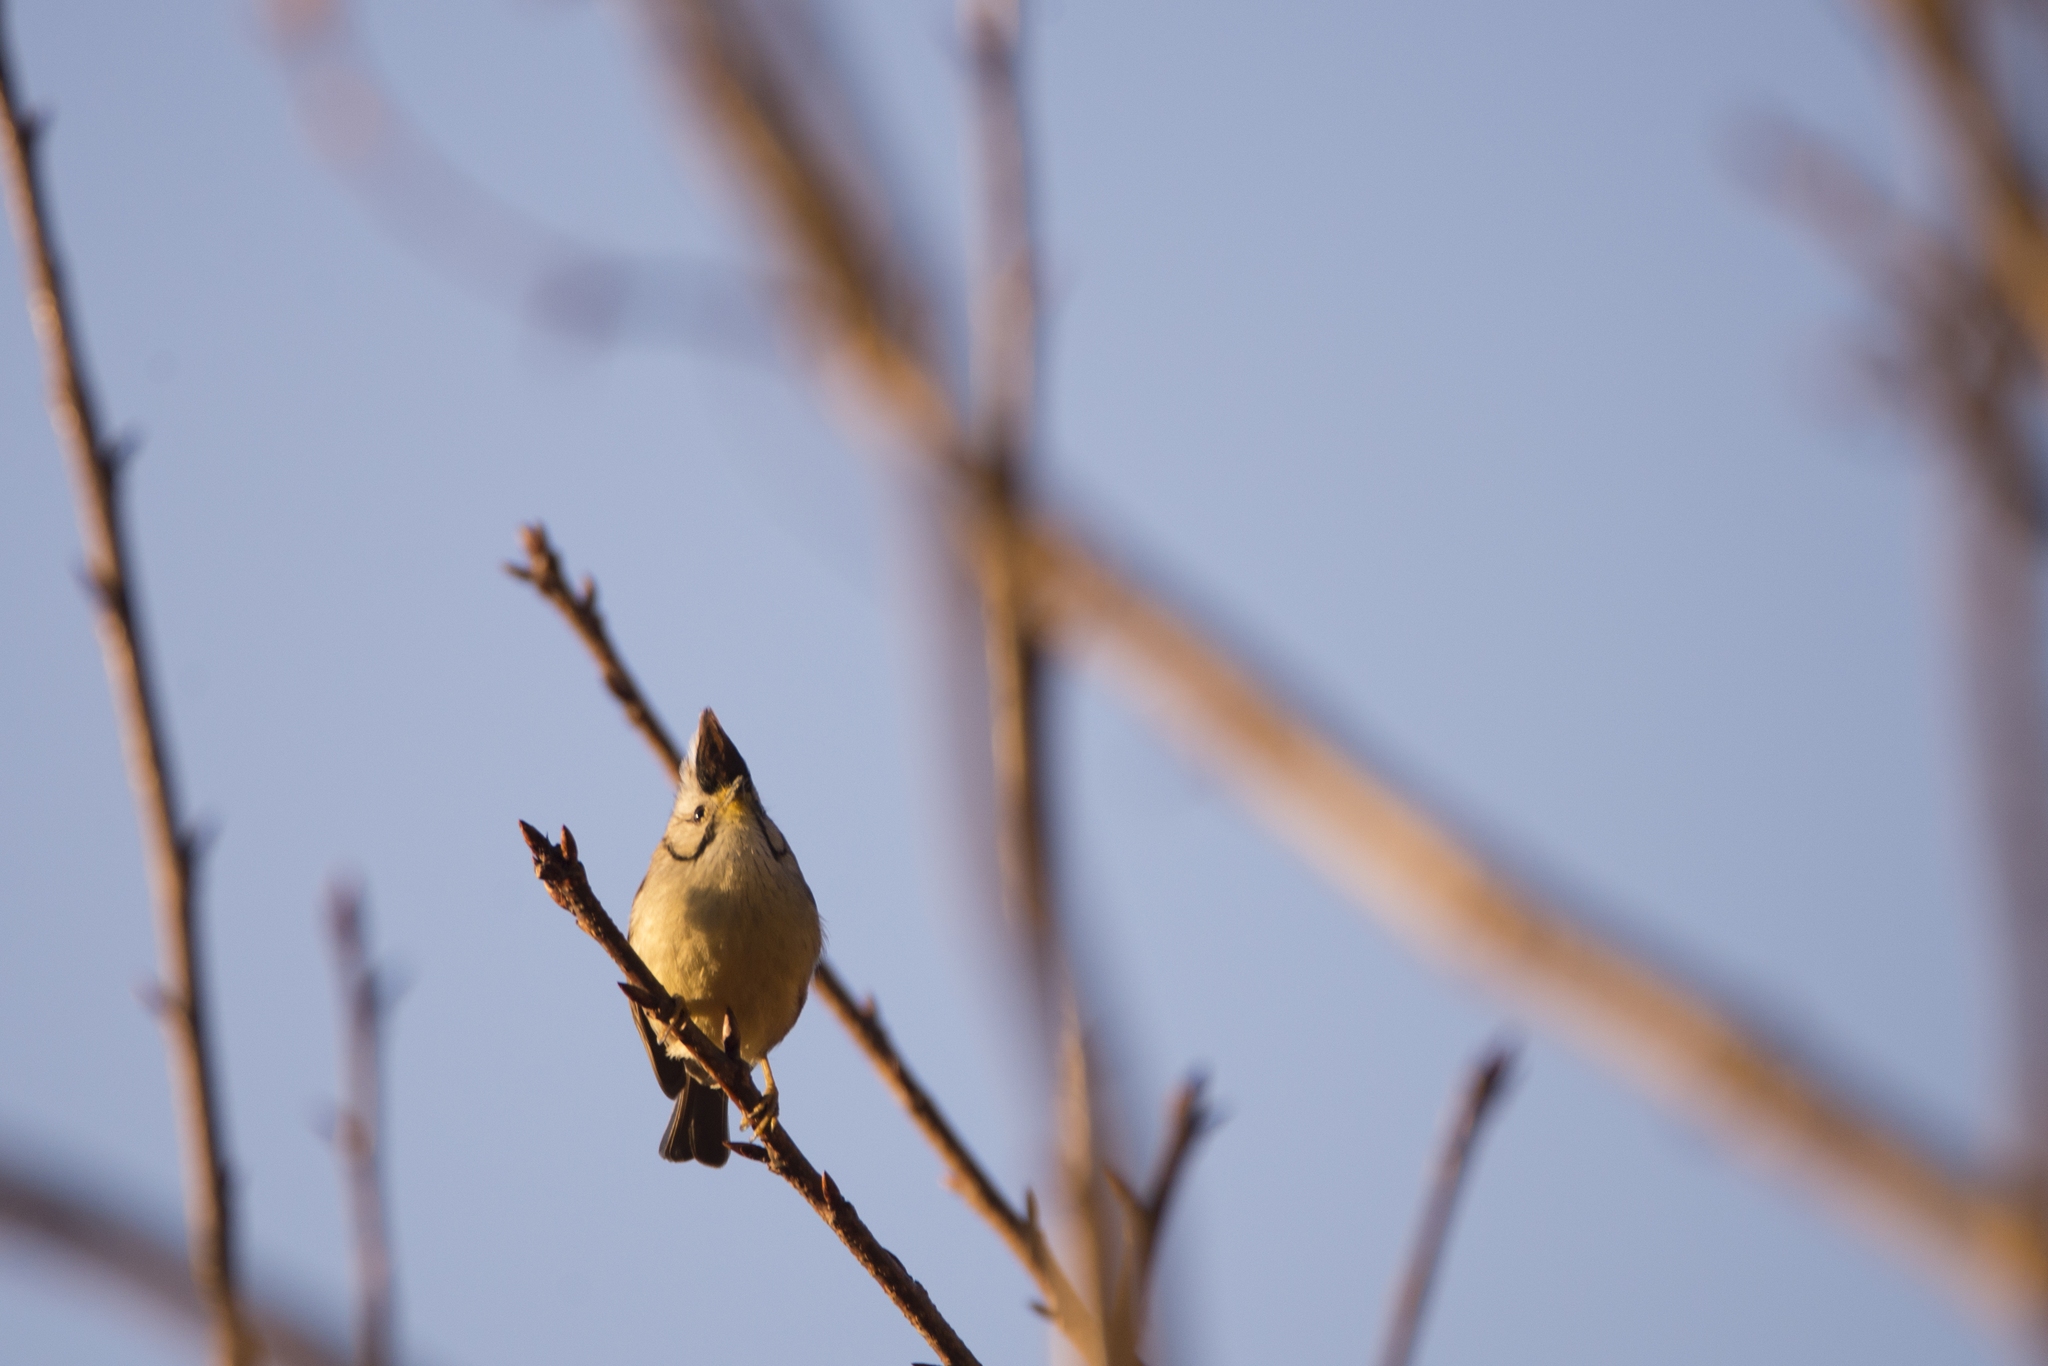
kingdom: Animalia
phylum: Chordata
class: Aves
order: Passeriformes
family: Zosteropidae
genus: Yuhina
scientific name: Yuhina brunneiceps
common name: Taiwan yuhina
